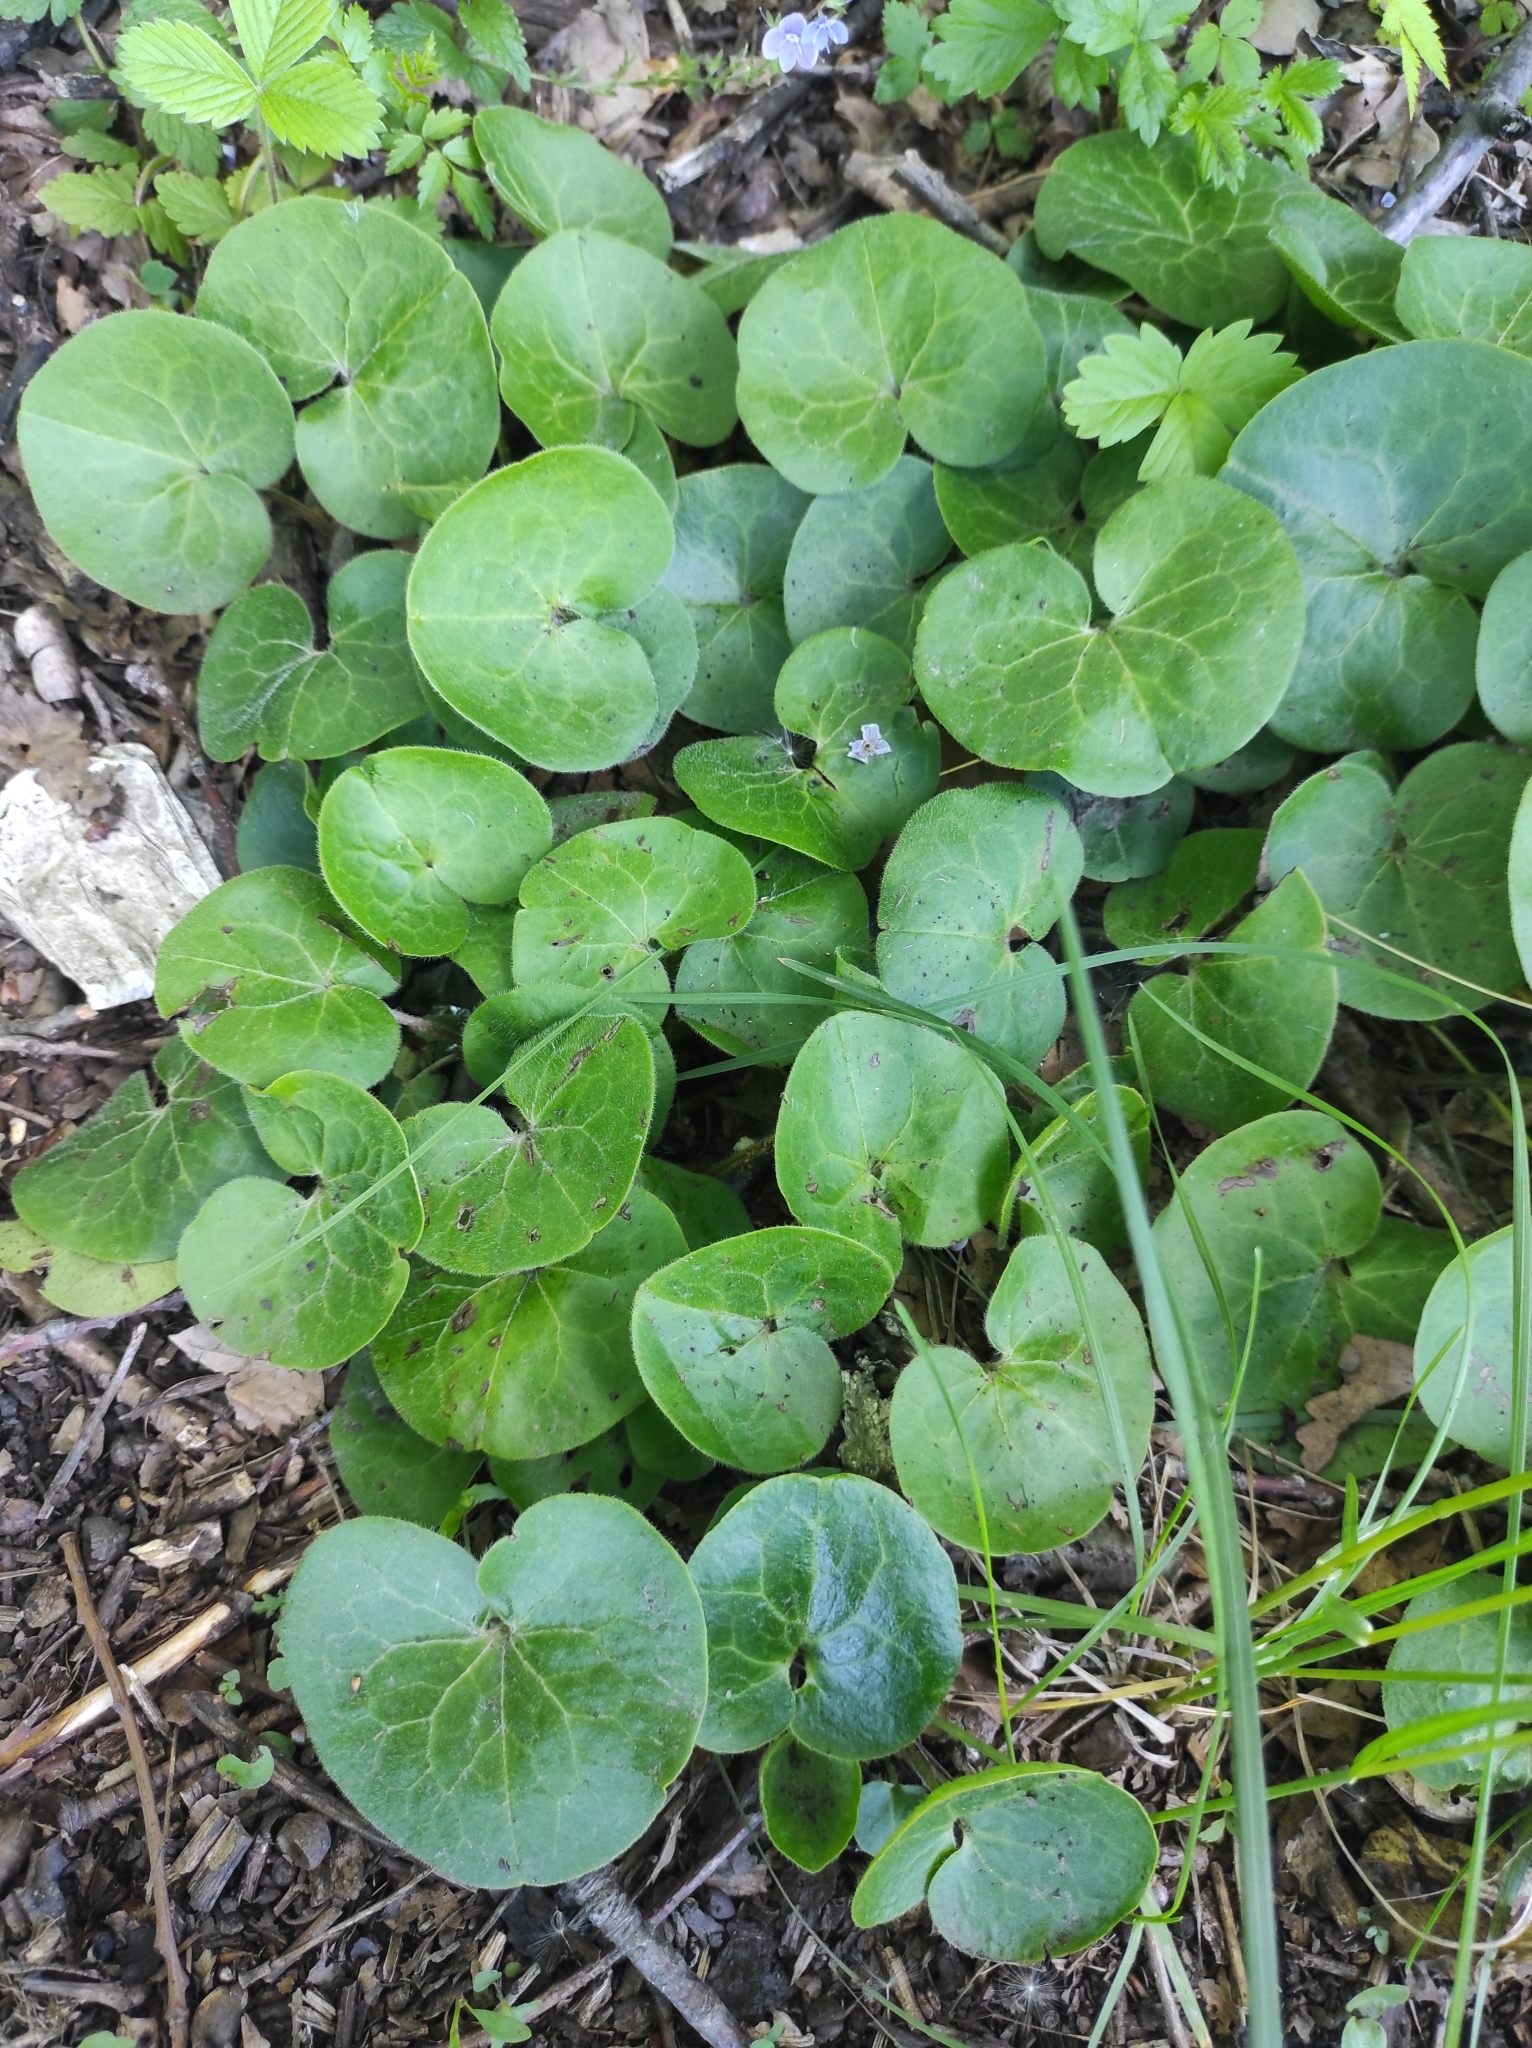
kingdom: Plantae
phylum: Tracheophyta
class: Magnoliopsida
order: Piperales
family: Aristolochiaceae
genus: Asarum
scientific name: Asarum europaeum
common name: Asarabacca
